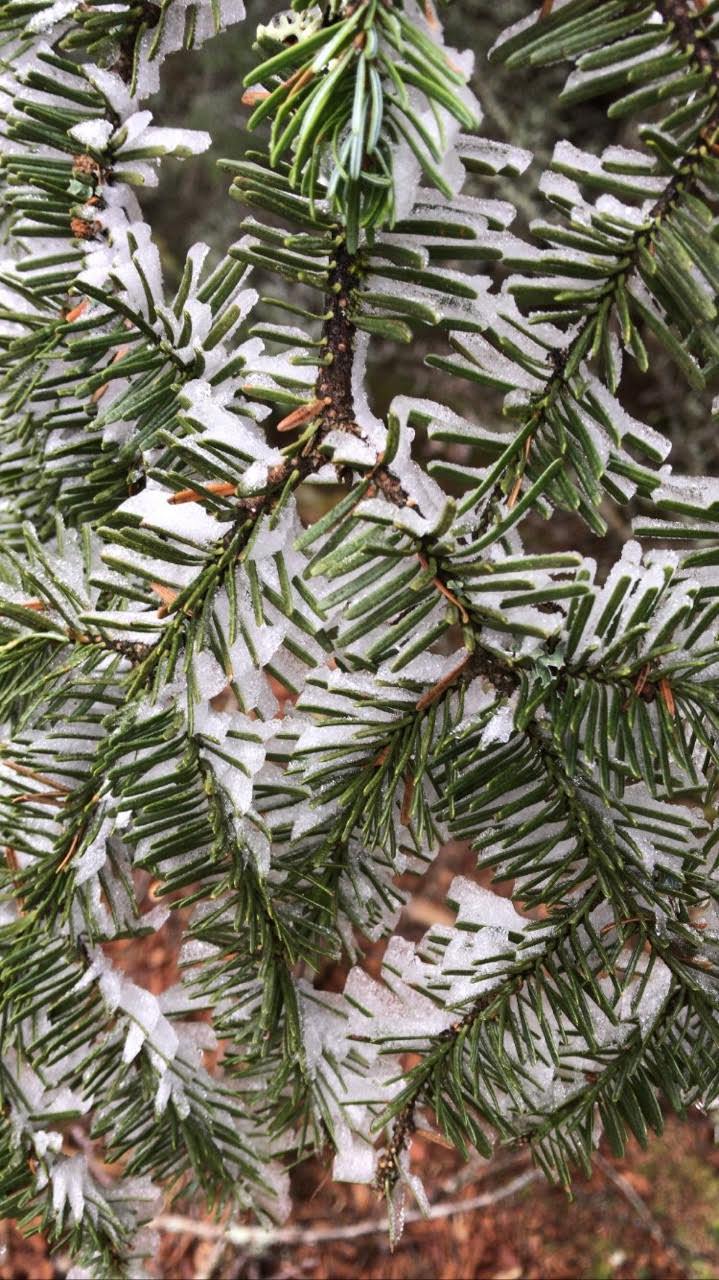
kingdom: Plantae
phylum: Tracheophyta
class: Pinopsida
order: Pinales
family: Pinaceae
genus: Abies
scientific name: Abies balsamea
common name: Balsam fir
